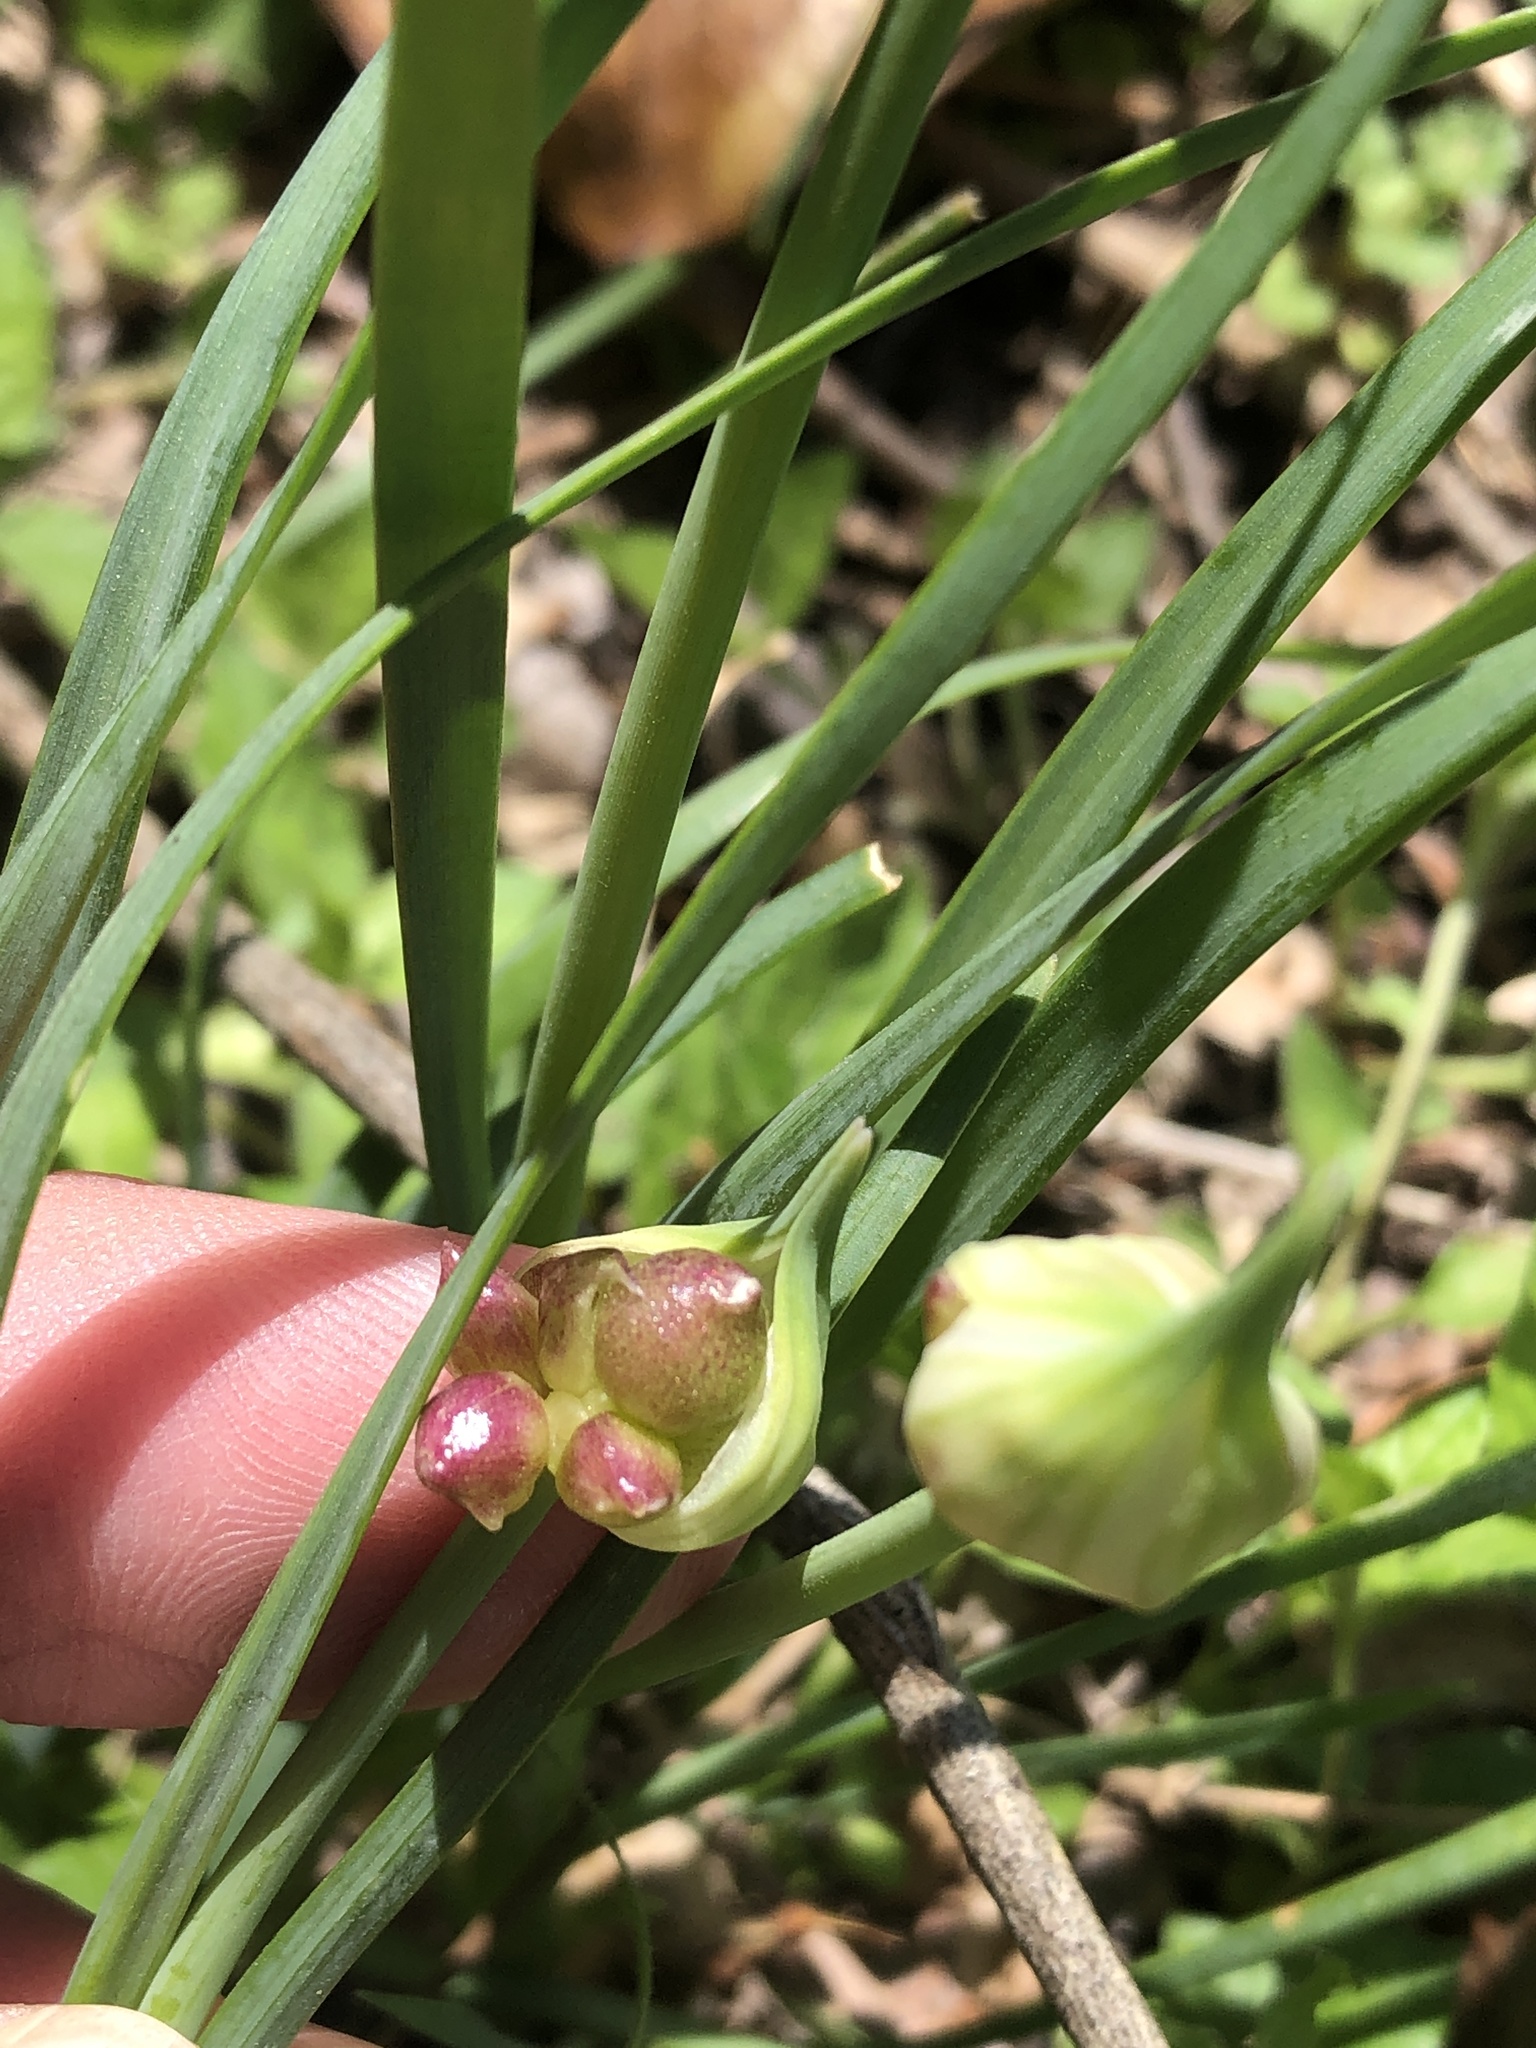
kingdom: Plantae
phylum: Tracheophyta
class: Liliopsida
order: Asparagales
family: Amaryllidaceae
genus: Allium
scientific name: Allium canadense
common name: Meadow garlic
